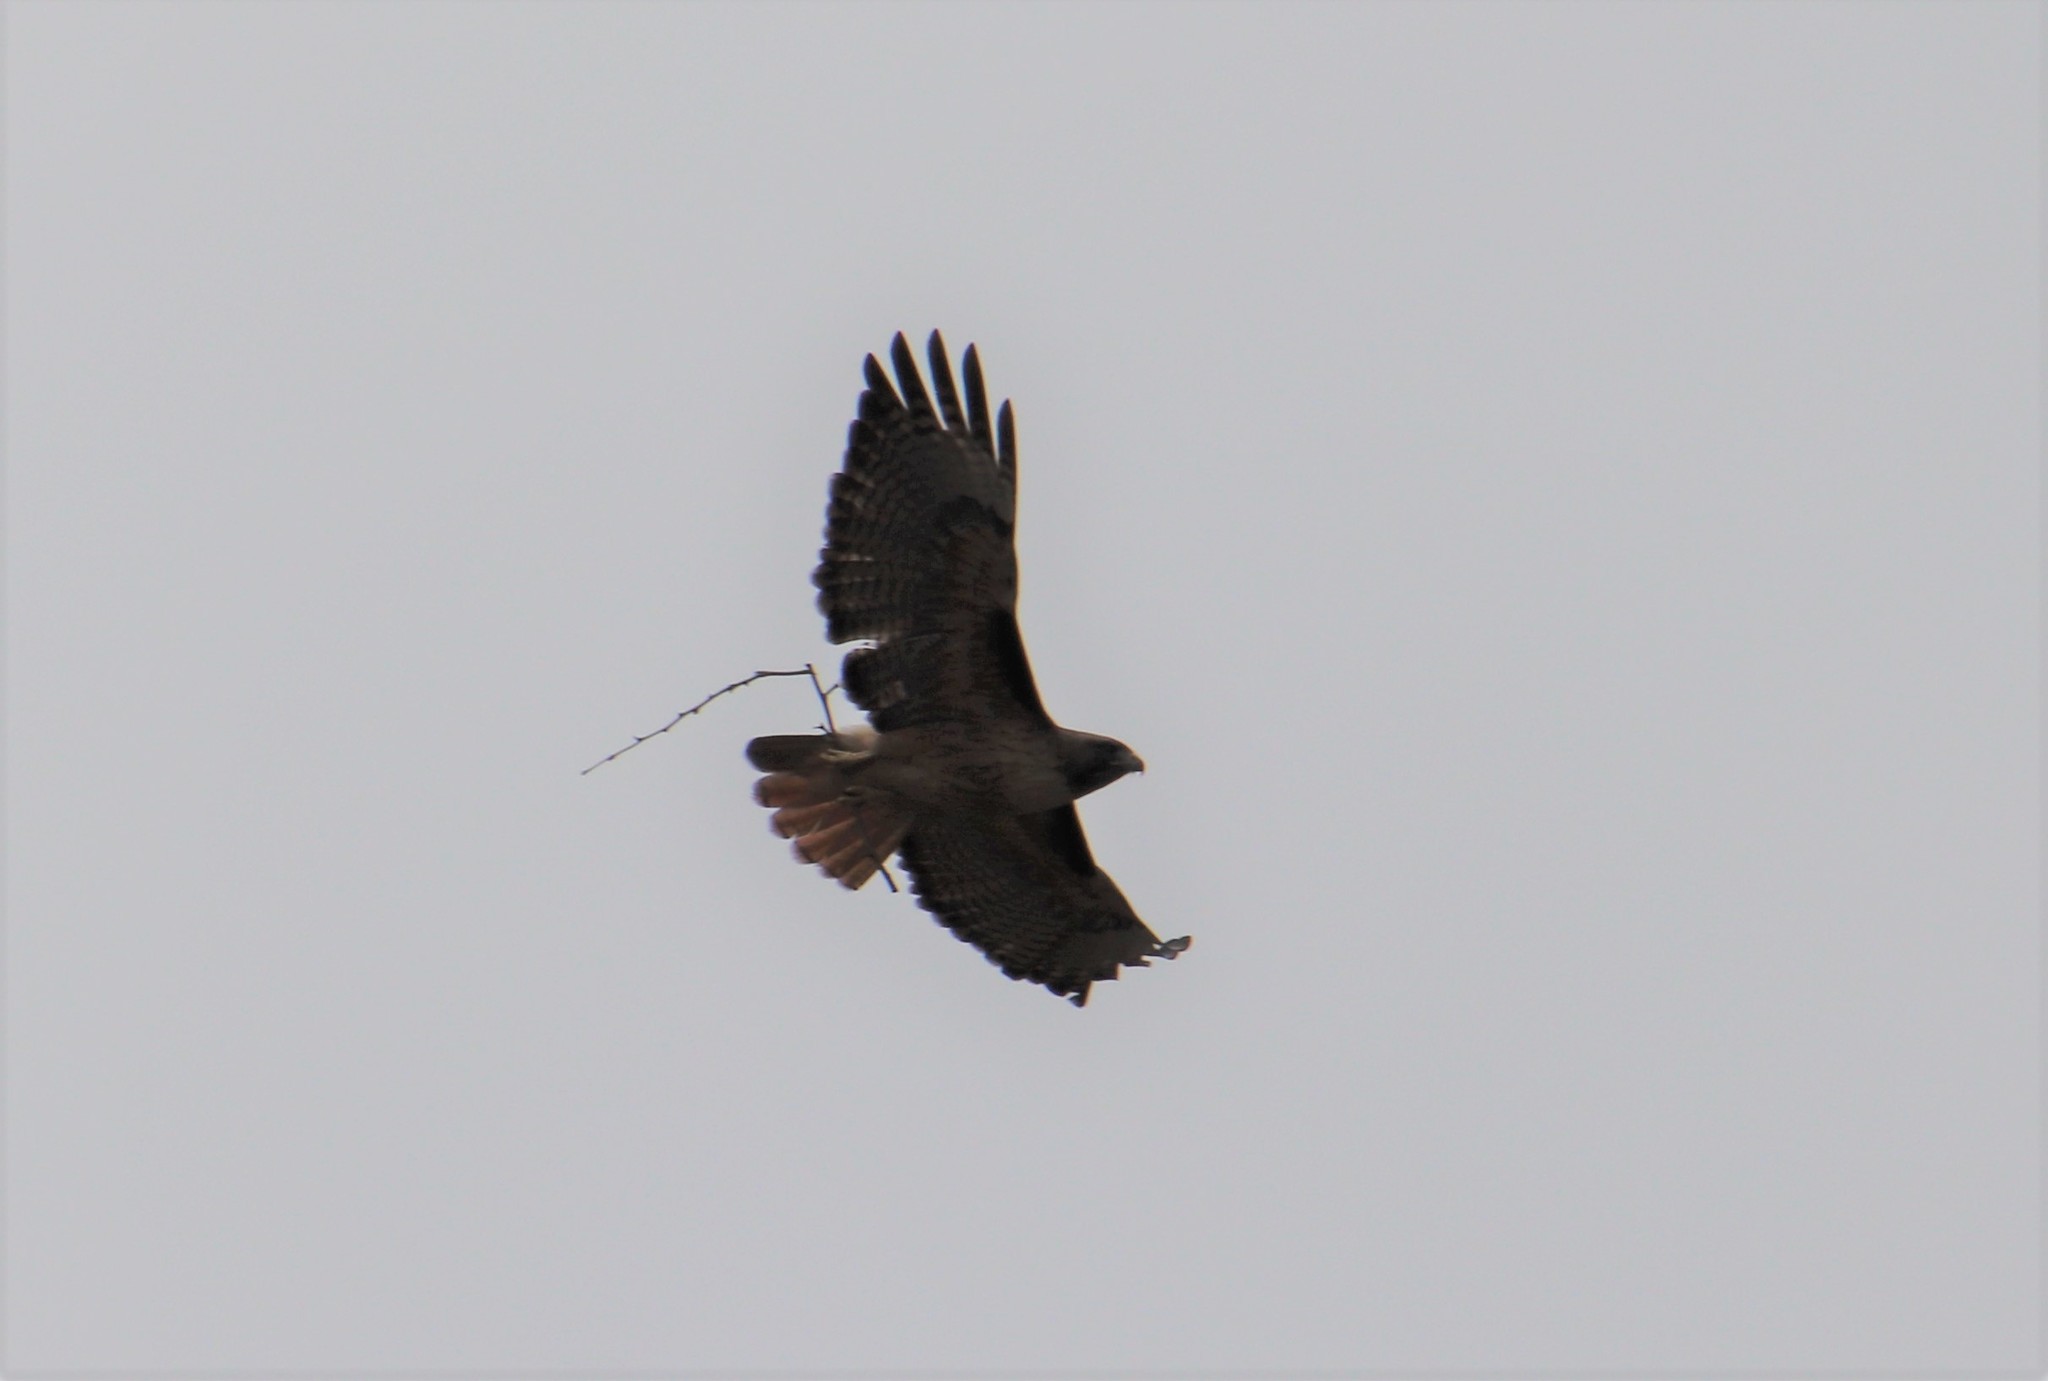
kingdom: Animalia
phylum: Chordata
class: Aves
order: Accipitriformes
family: Accipitridae
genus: Buteo
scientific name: Buteo jamaicensis
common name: Red-tailed hawk
